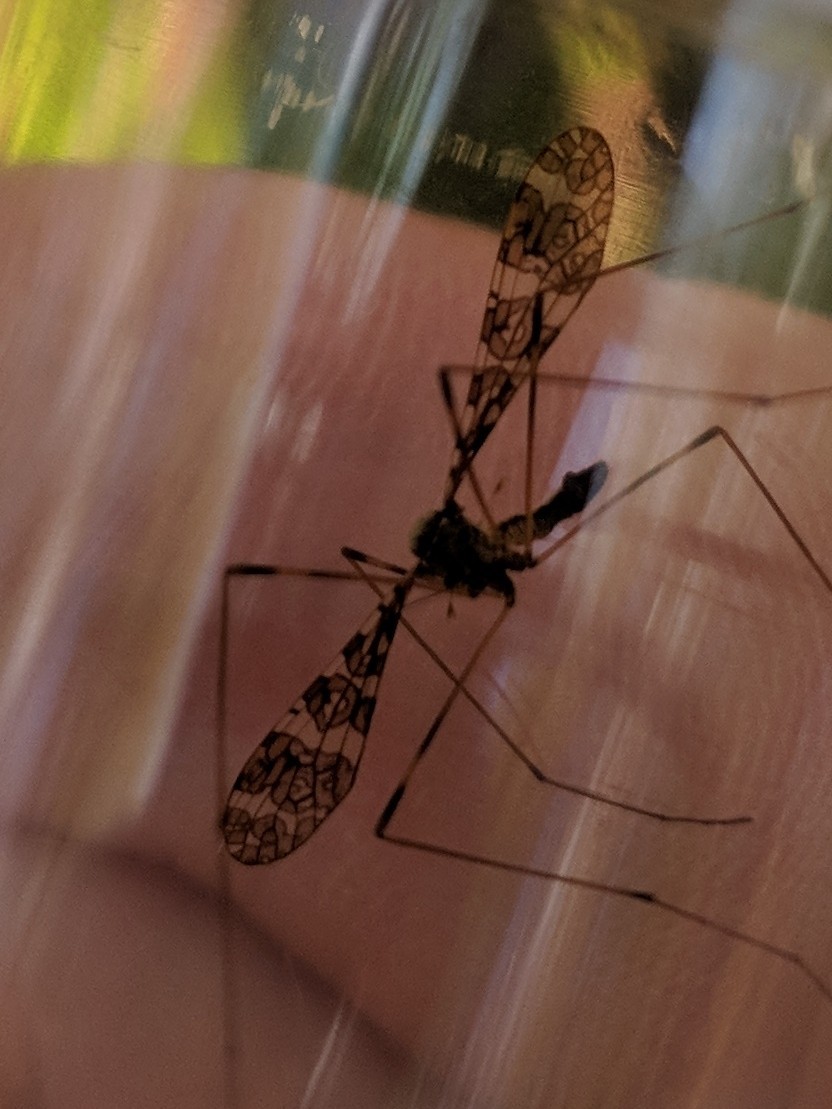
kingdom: Animalia
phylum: Arthropoda
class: Insecta
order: Diptera
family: Limoniidae
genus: Epiphragma
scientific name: Epiphragma fasciapenne
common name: Band-winged crane fly
